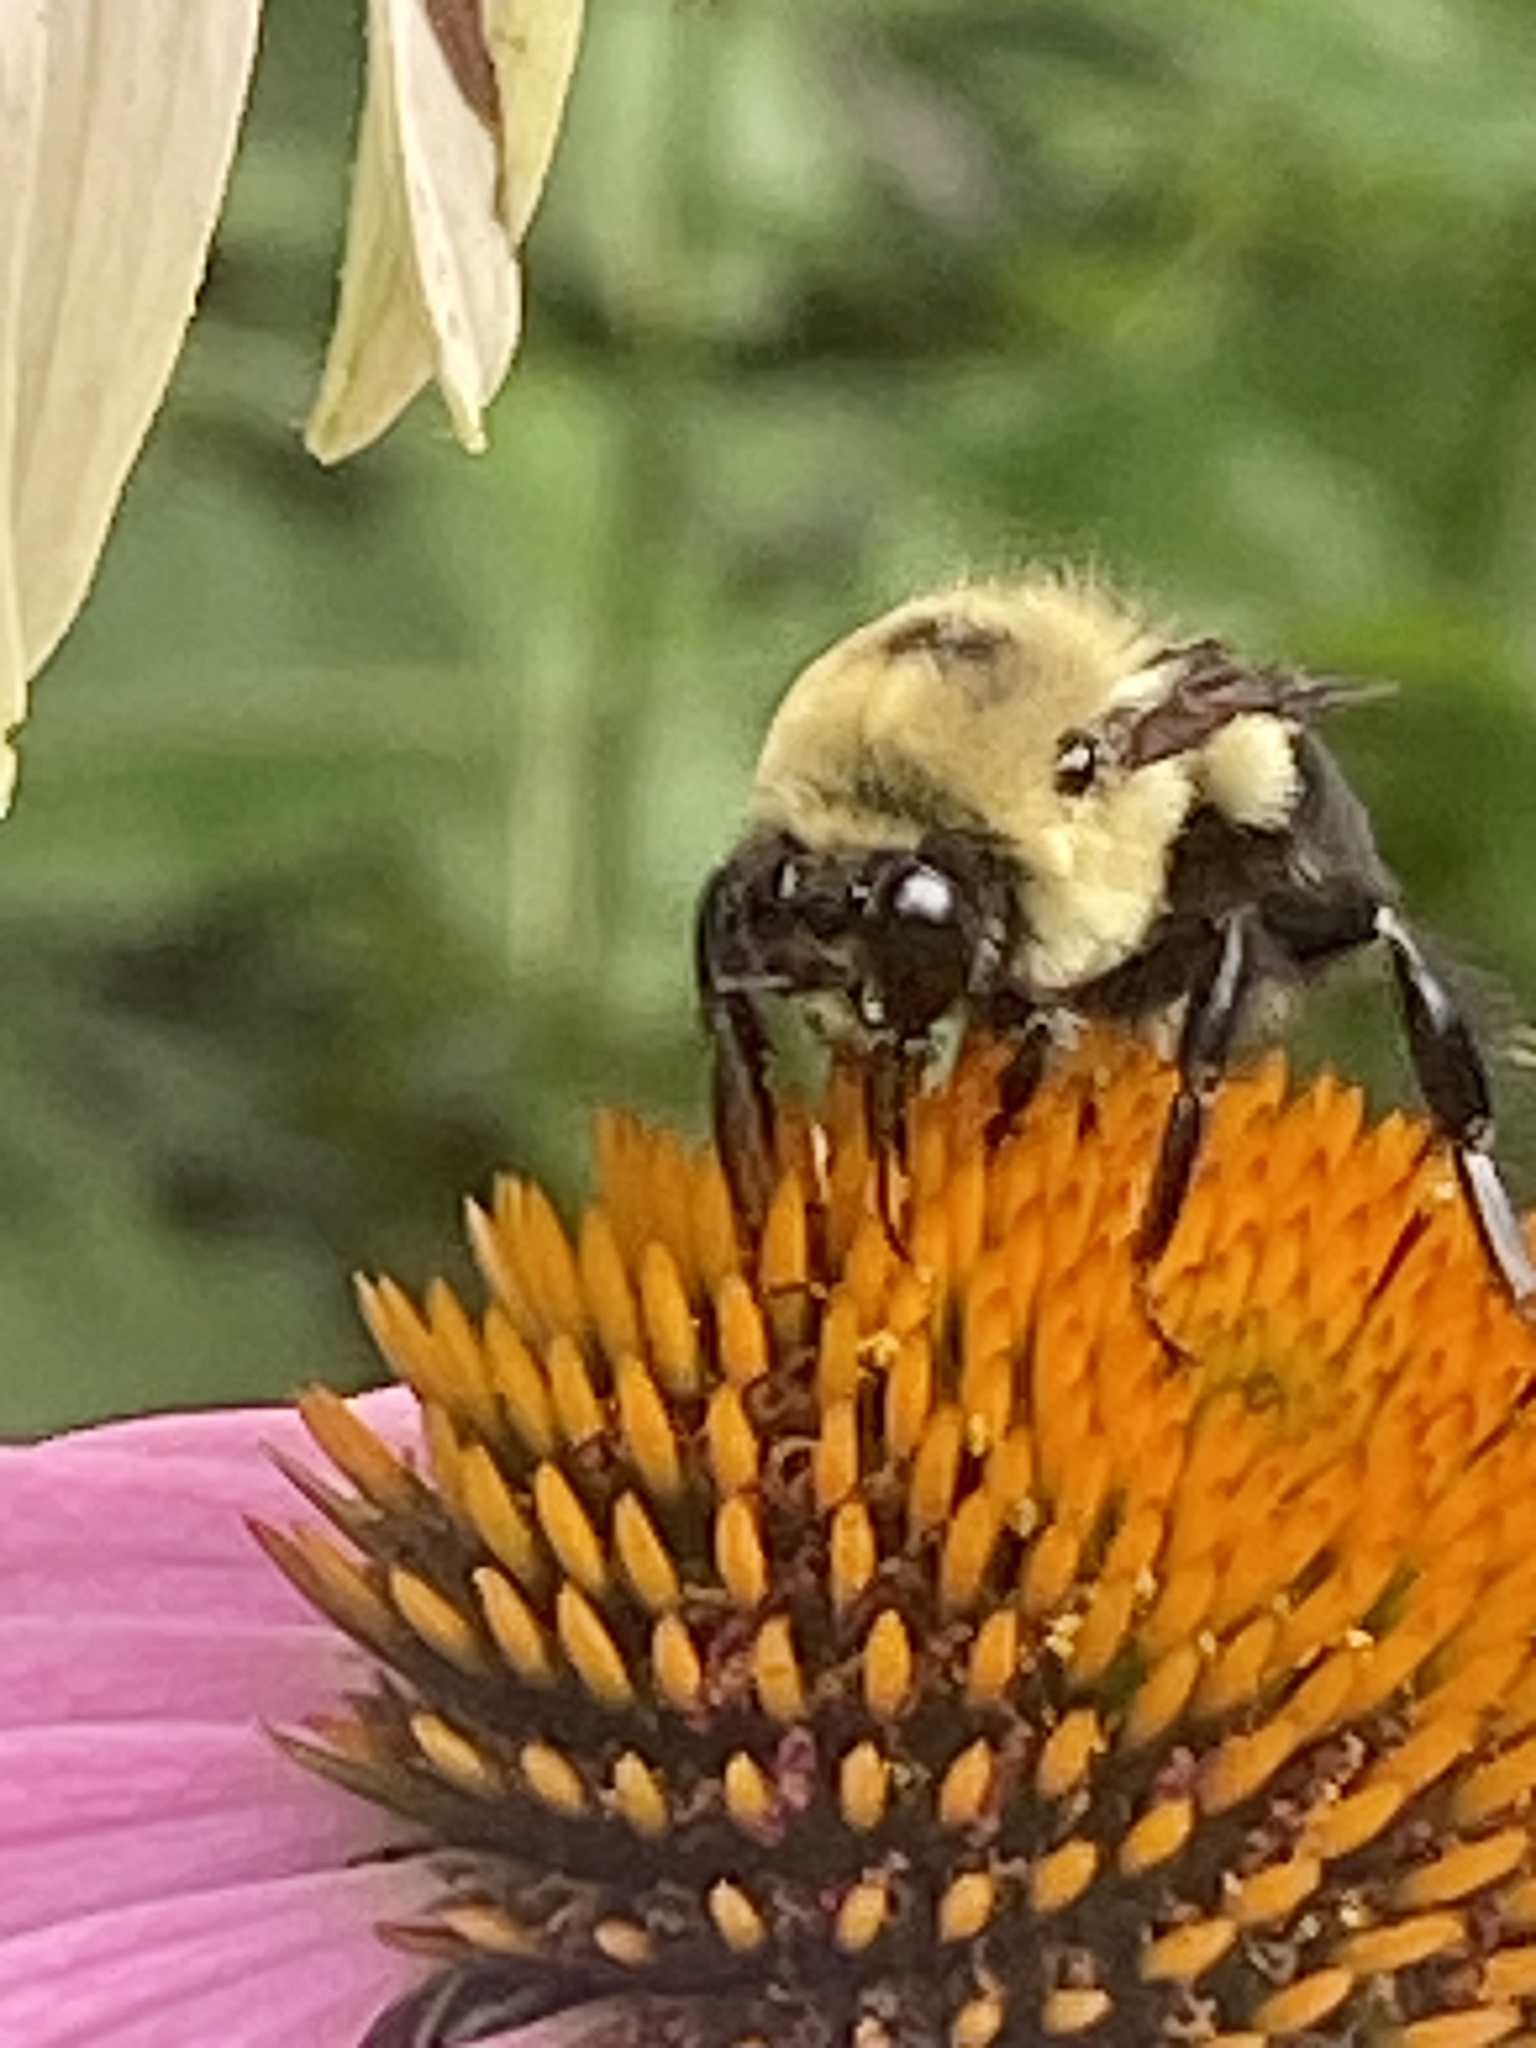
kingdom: Animalia
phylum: Arthropoda
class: Insecta
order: Hymenoptera
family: Apidae
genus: Bombus
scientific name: Bombus griseocollis
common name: Brown-belted bumble bee
